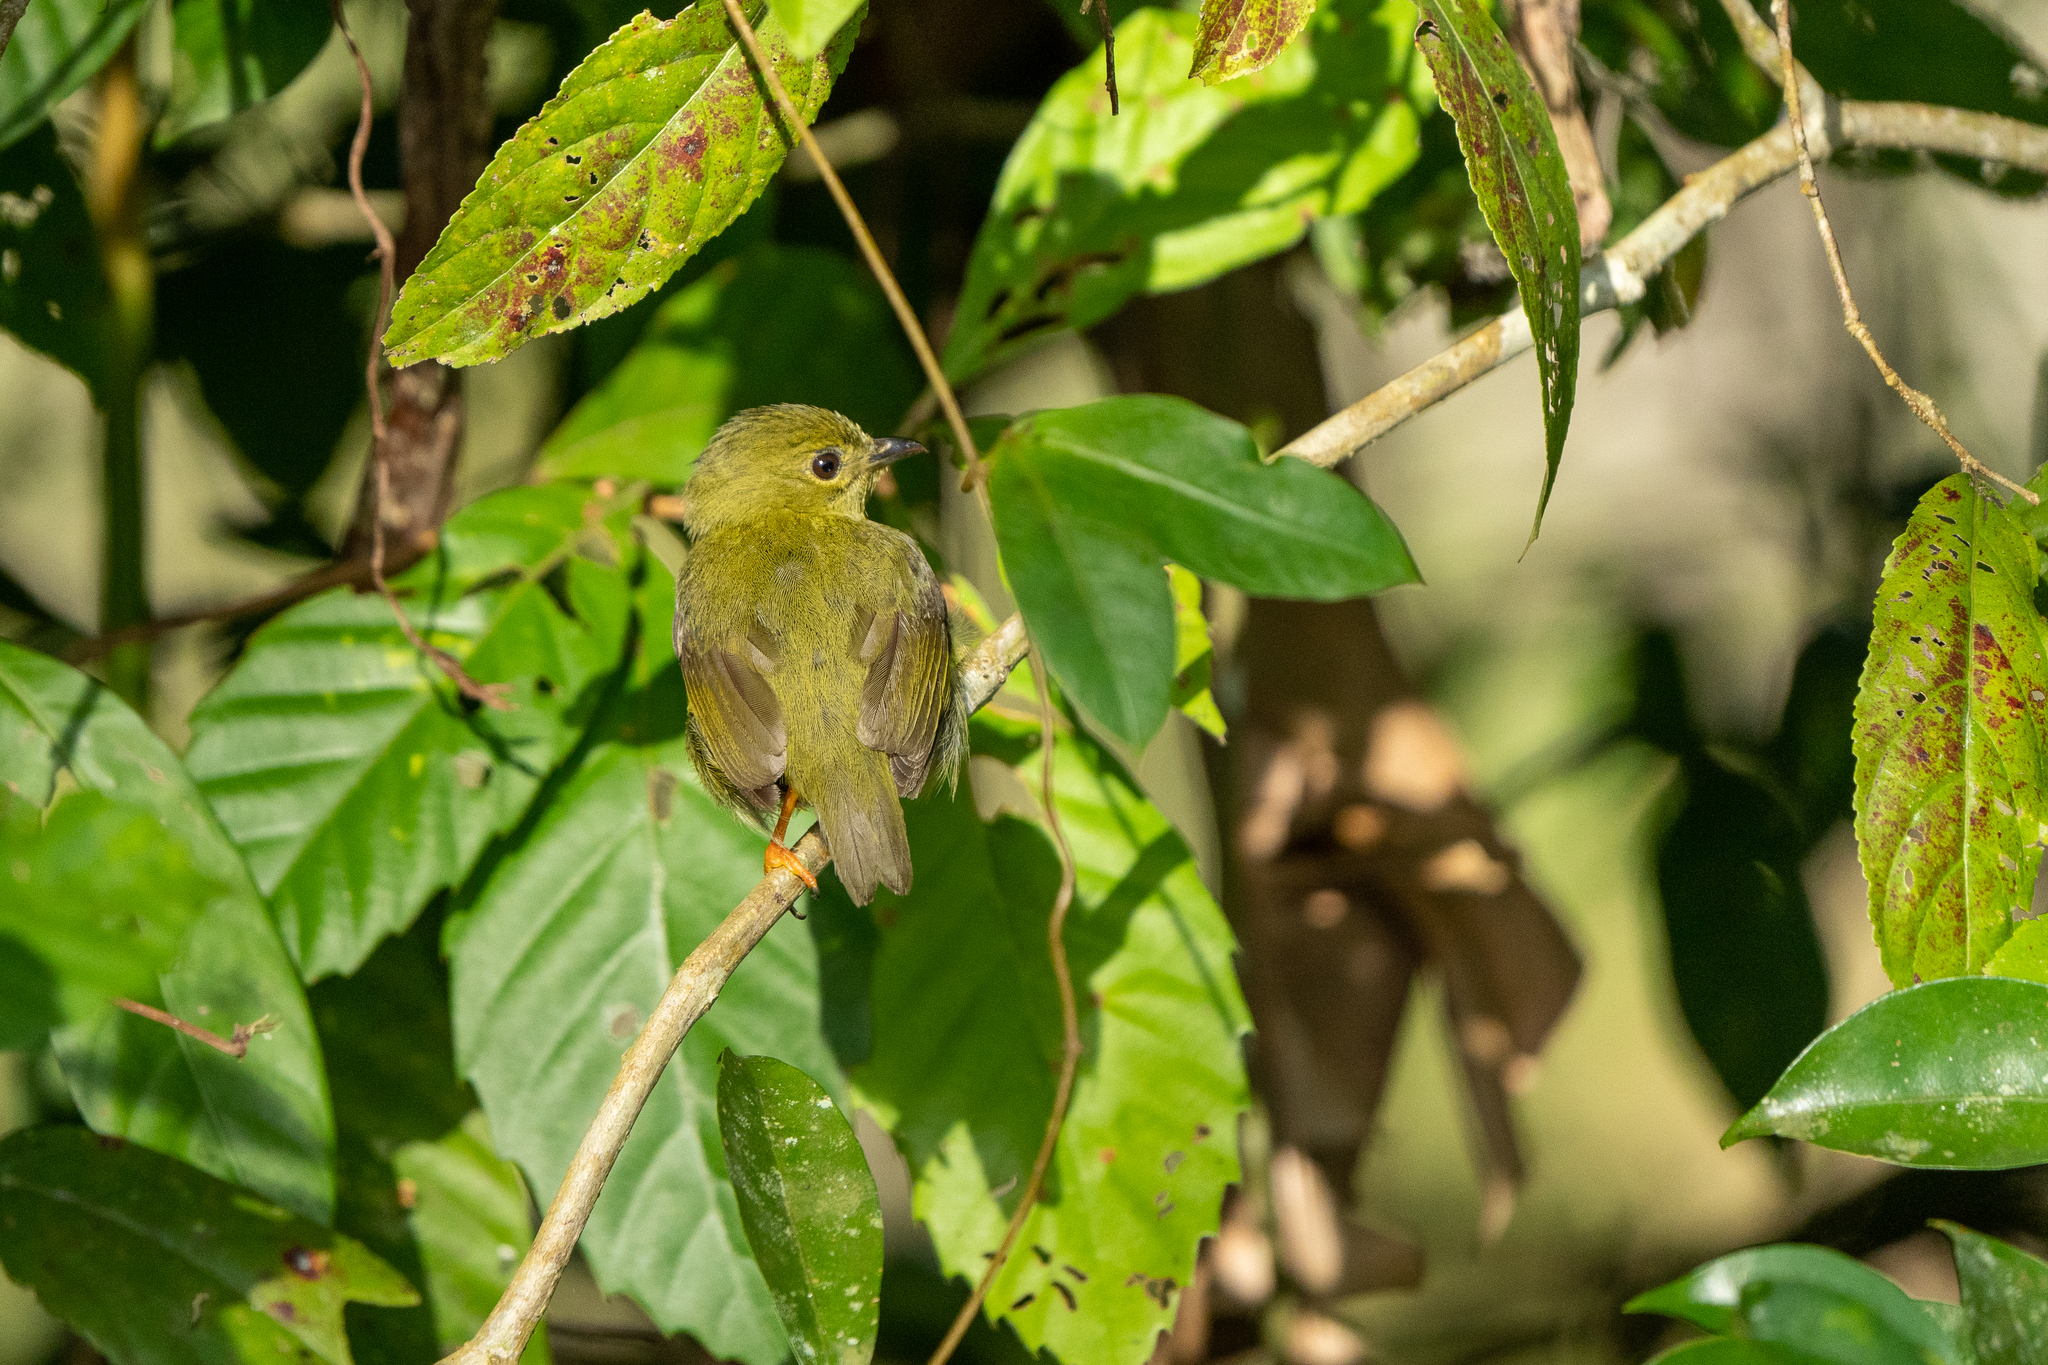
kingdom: Animalia
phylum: Chordata
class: Aves
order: Passeriformes
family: Pipridae
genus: Manacus
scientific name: Manacus vitellinus
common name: Golden-collared manakin
